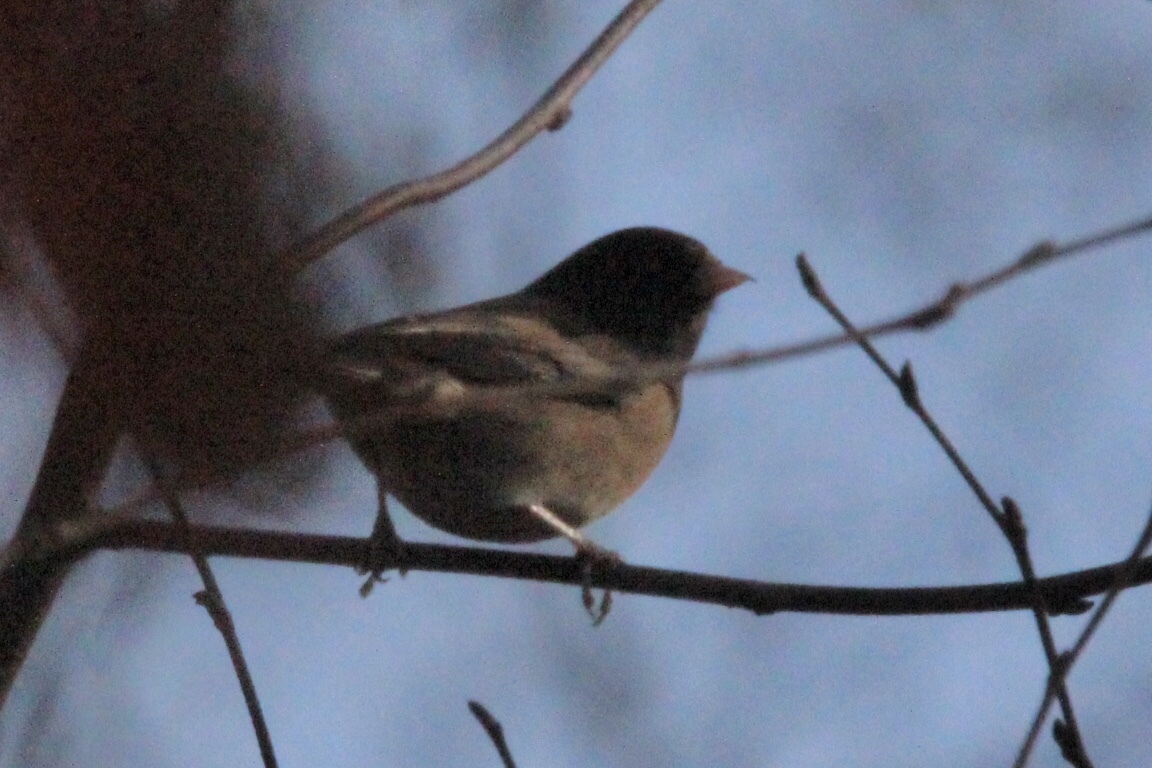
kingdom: Animalia
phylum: Chordata
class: Aves
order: Passeriformes
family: Passerellidae
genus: Junco
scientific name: Junco hyemalis
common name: Dark-eyed junco
